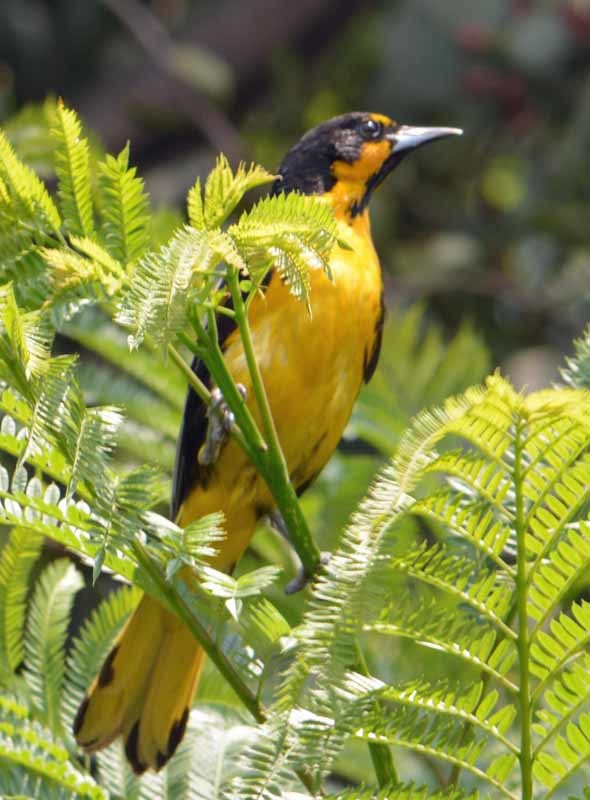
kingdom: Animalia
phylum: Chordata
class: Aves
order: Passeriformes
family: Icteridae
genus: Icterus
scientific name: Icterus abeillei
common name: Black-backed oriole
